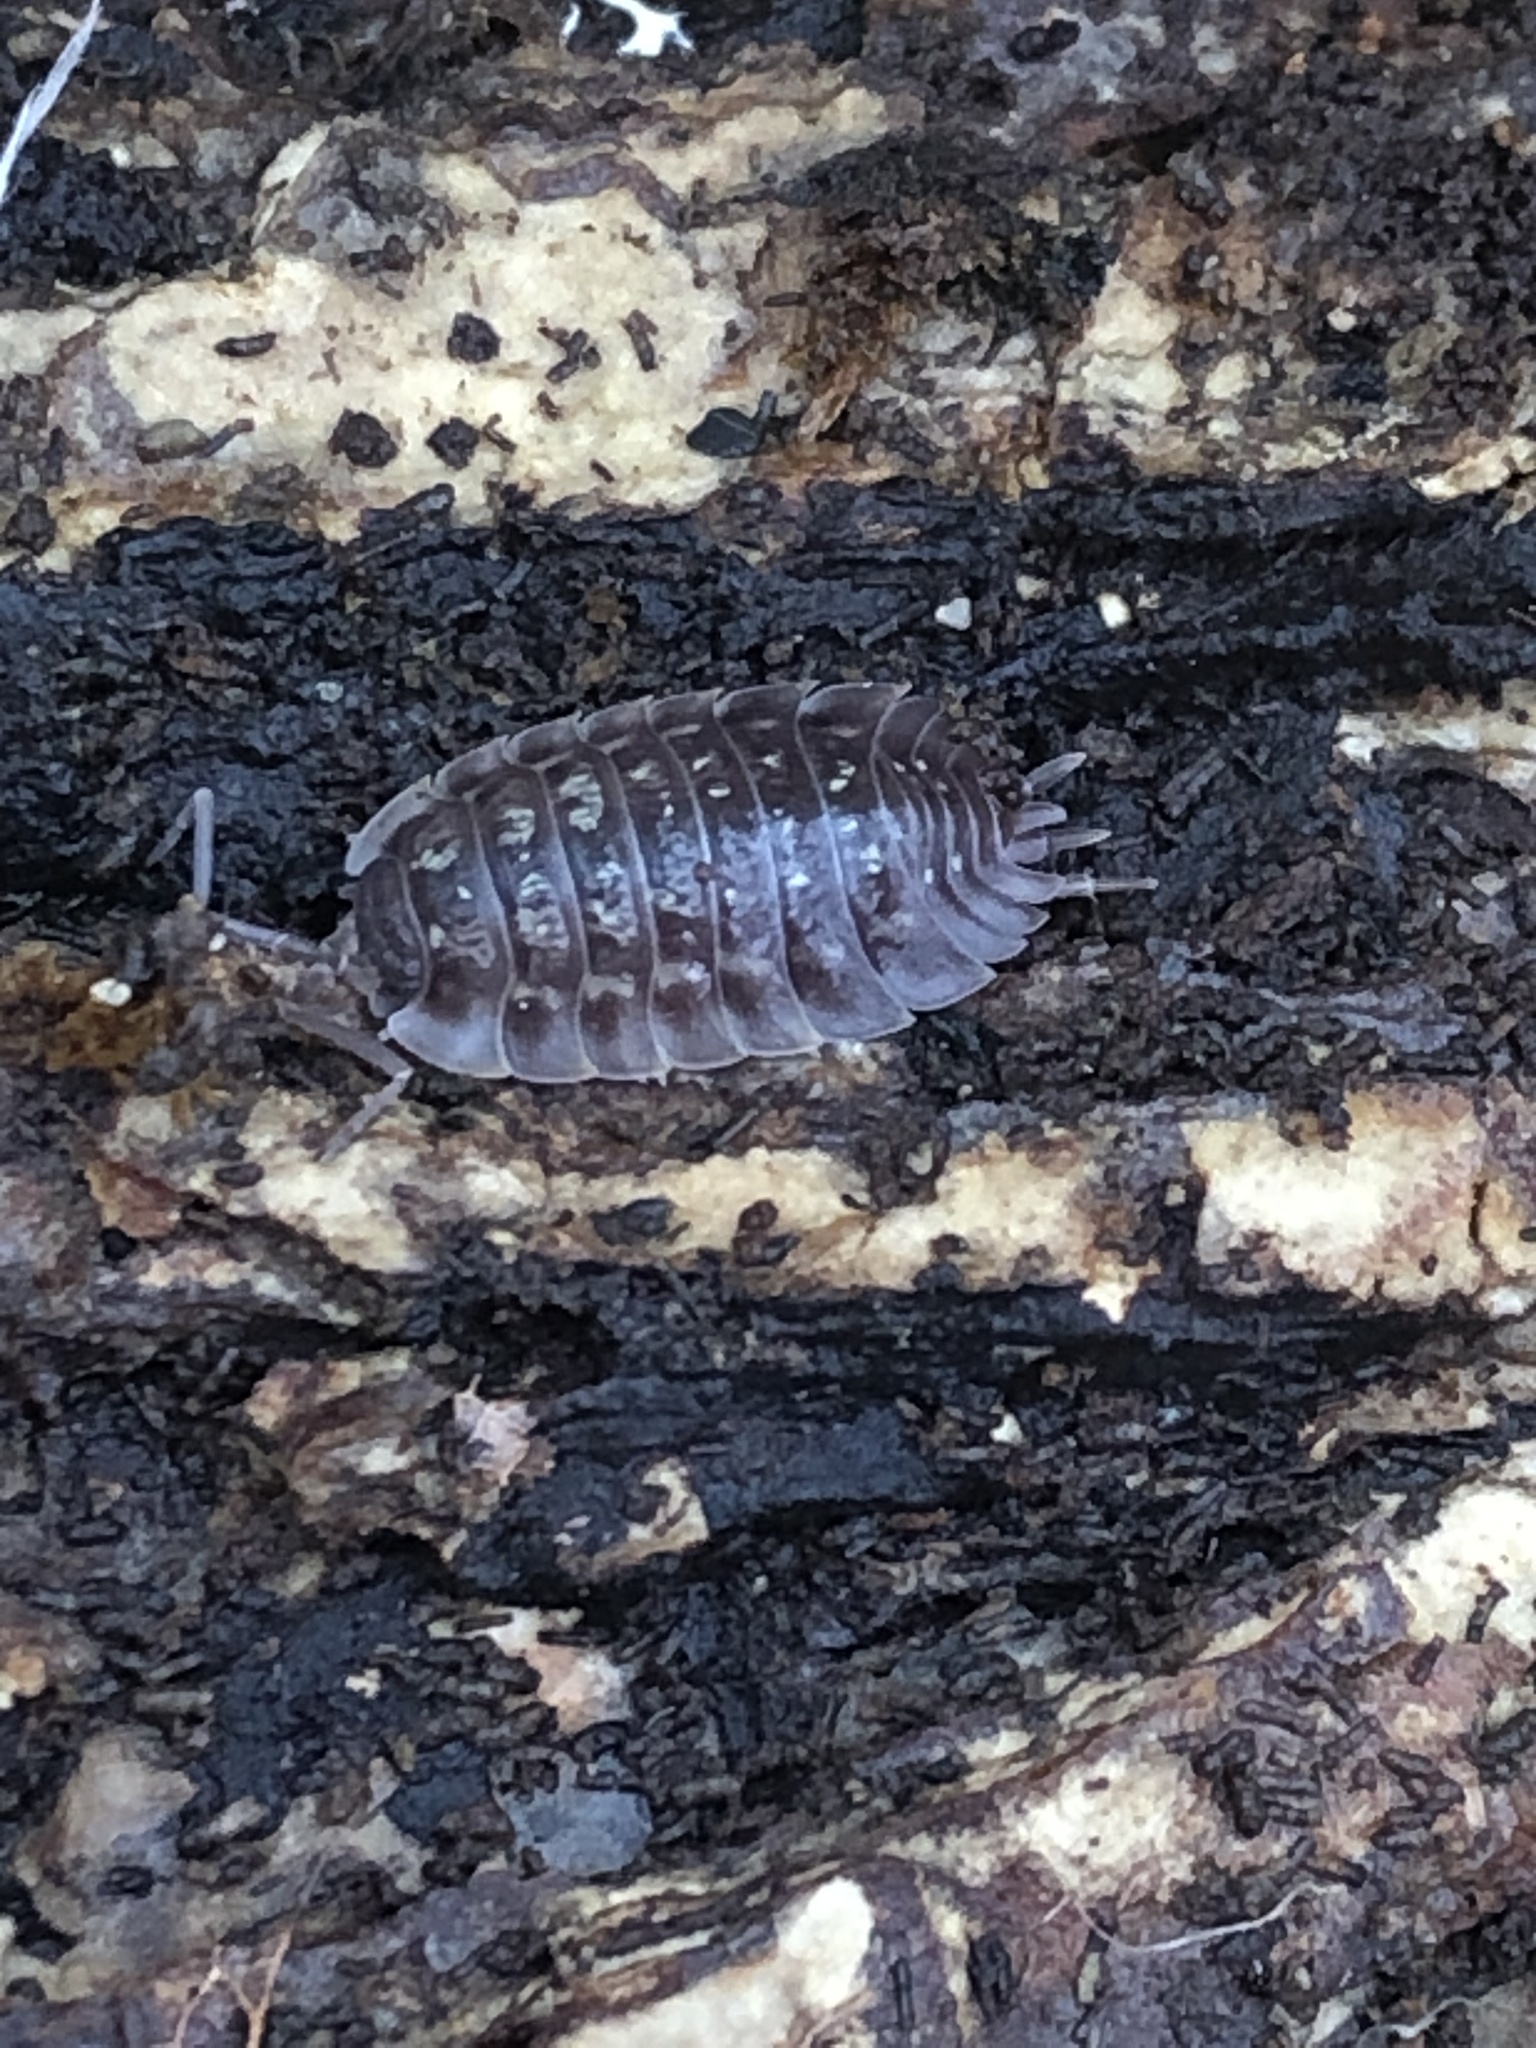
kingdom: Animalia
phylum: Arthropoda
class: Malacostraca
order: Isopoda
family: Oniscidae
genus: Oniscus
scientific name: Oniscus asellus
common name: Common shiny woodlouse
